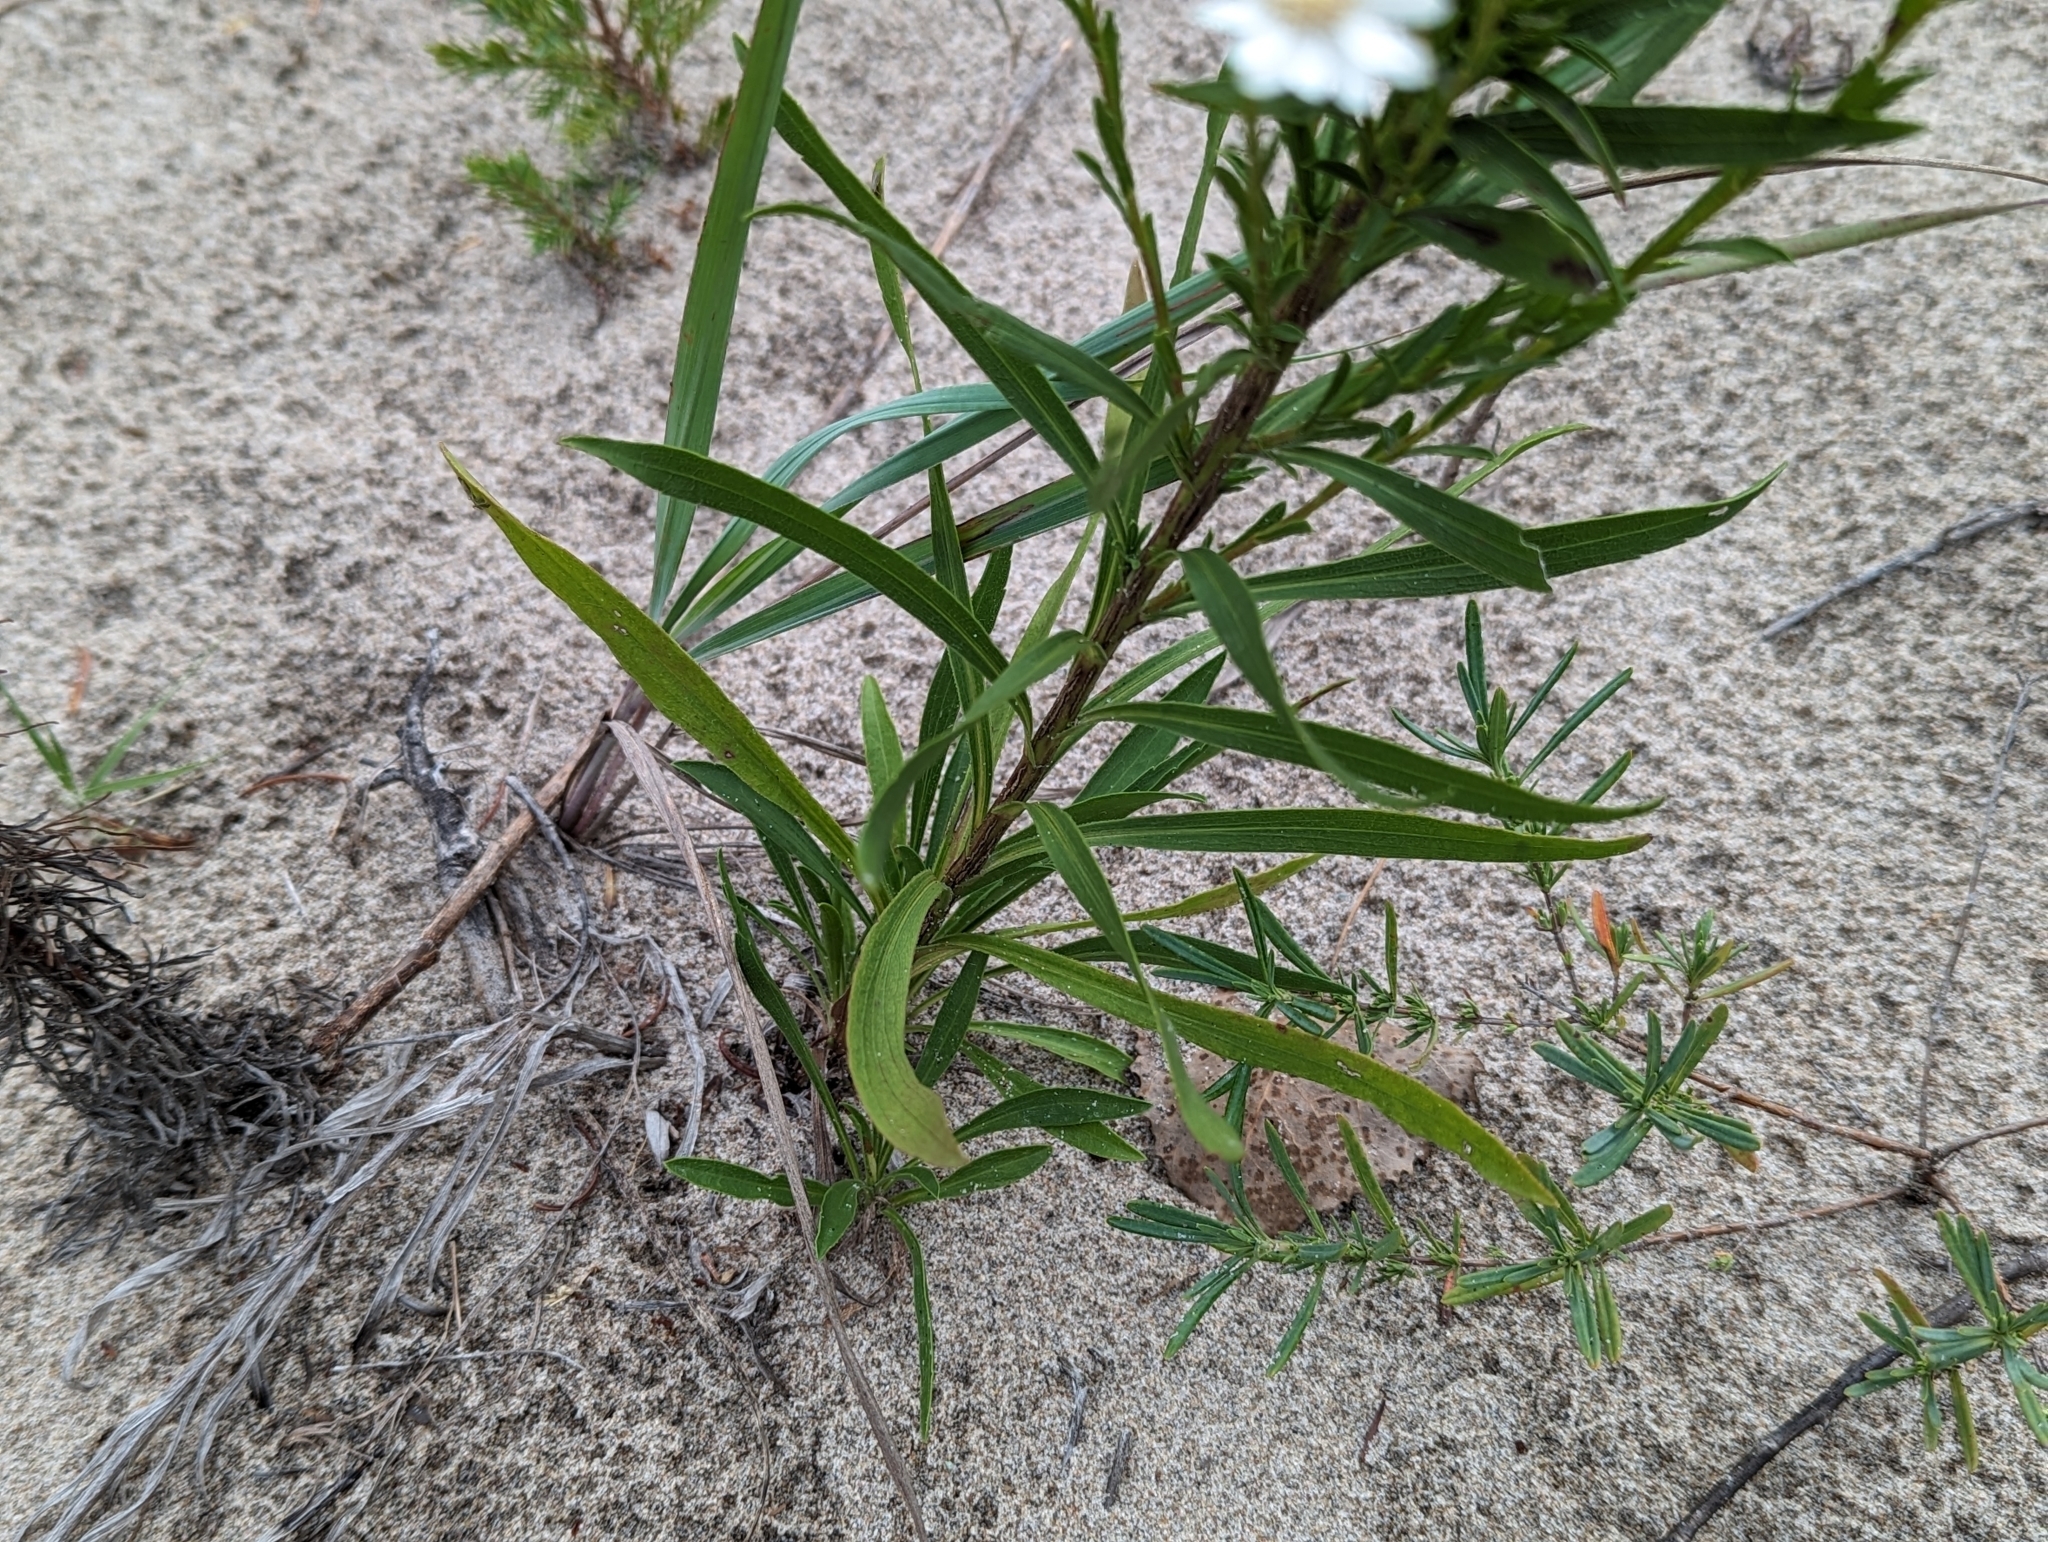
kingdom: Plantae
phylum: Tracheophyta
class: Magnoliopsida
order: Asterales
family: Asteraceae
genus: Solidago
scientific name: Solidago ptarmicoides
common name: White flat-top goldenrod
